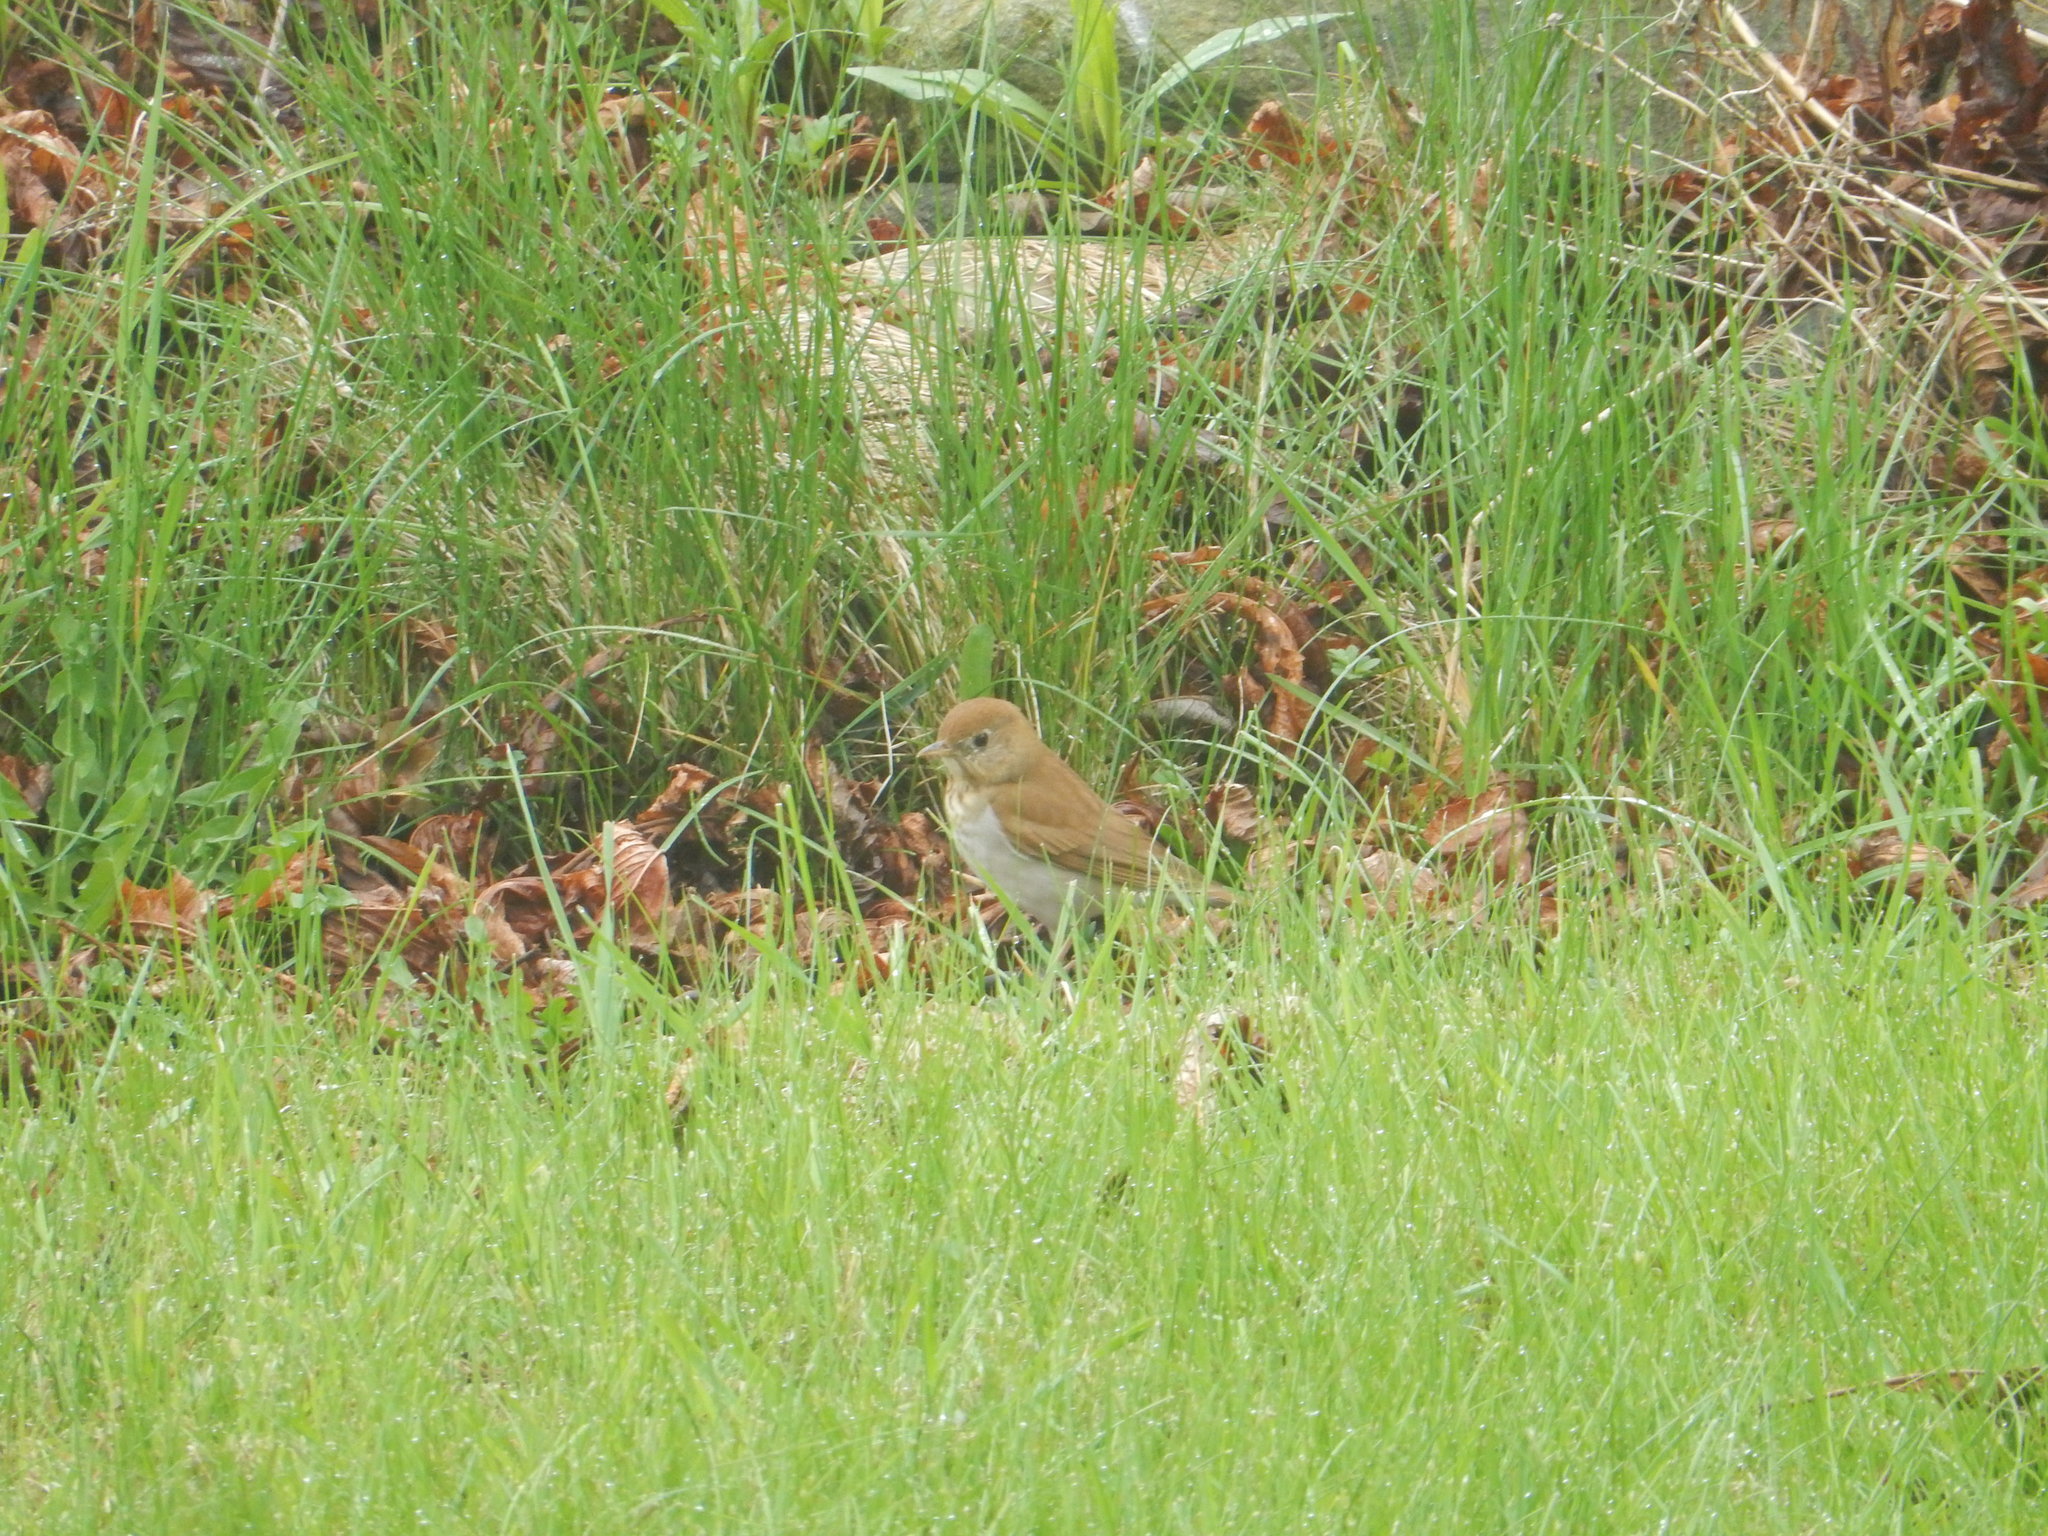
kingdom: Animalia
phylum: Chordata
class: Aves
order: Passeriformes
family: Turdidae
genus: Catharus
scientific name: Catharus fuscescens
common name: Veery
